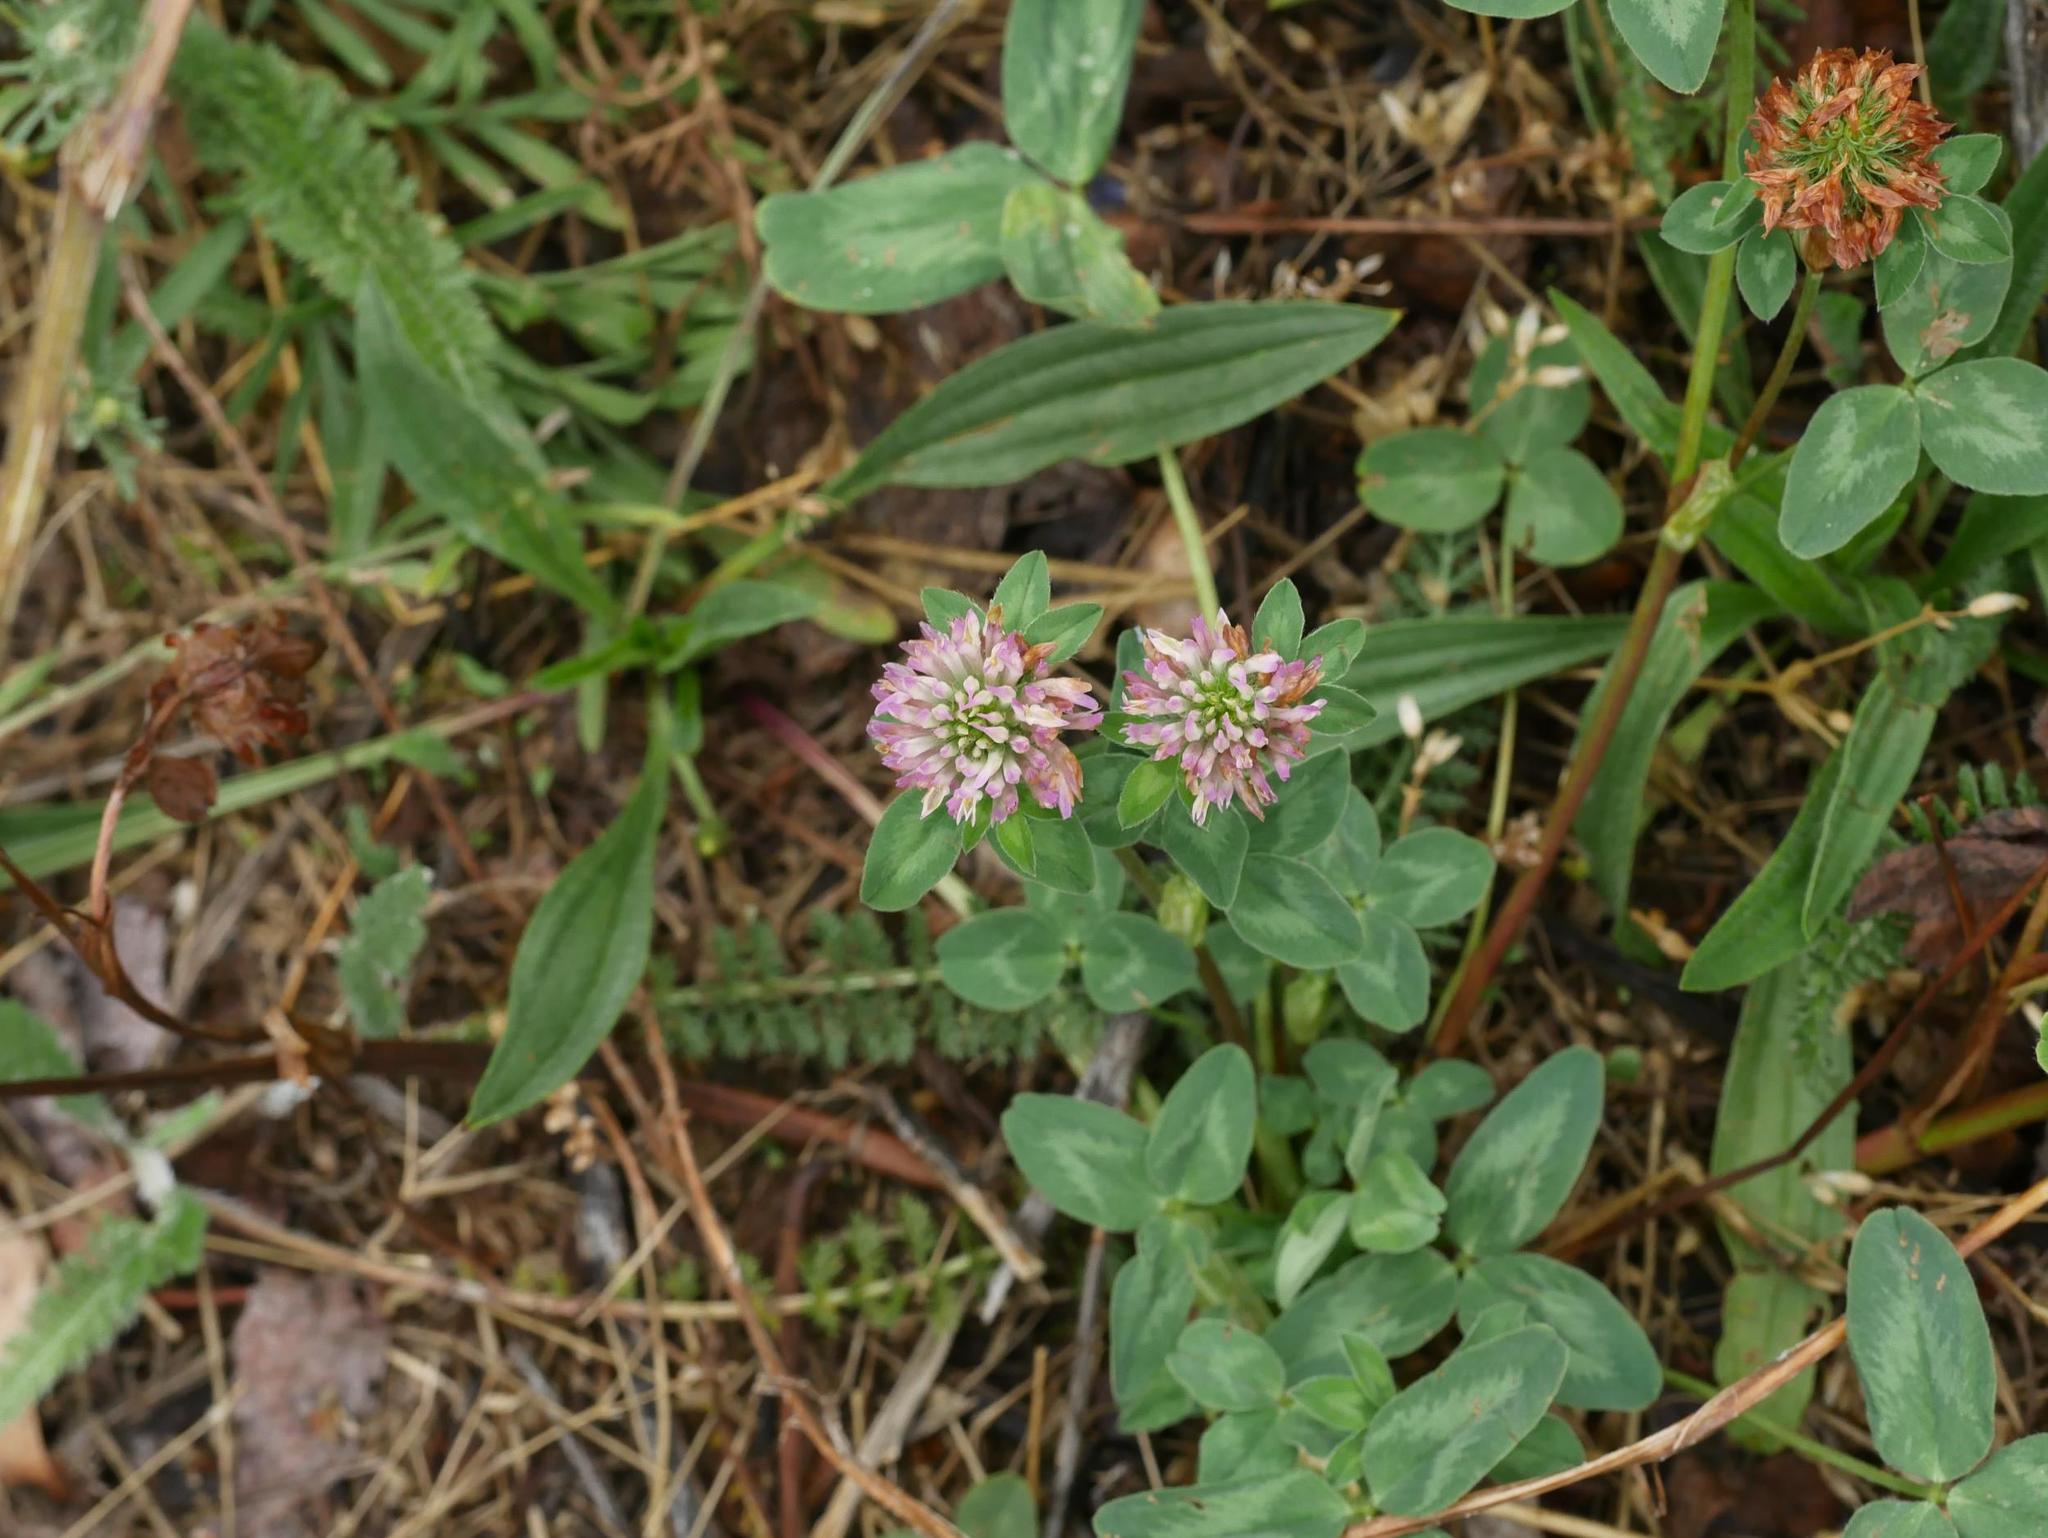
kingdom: Plantae
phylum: Tracheophyta
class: Magnoliopsida
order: Fabales
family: Fabaceae
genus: Trifolium
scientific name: Trifolium pratense
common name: Red clover
